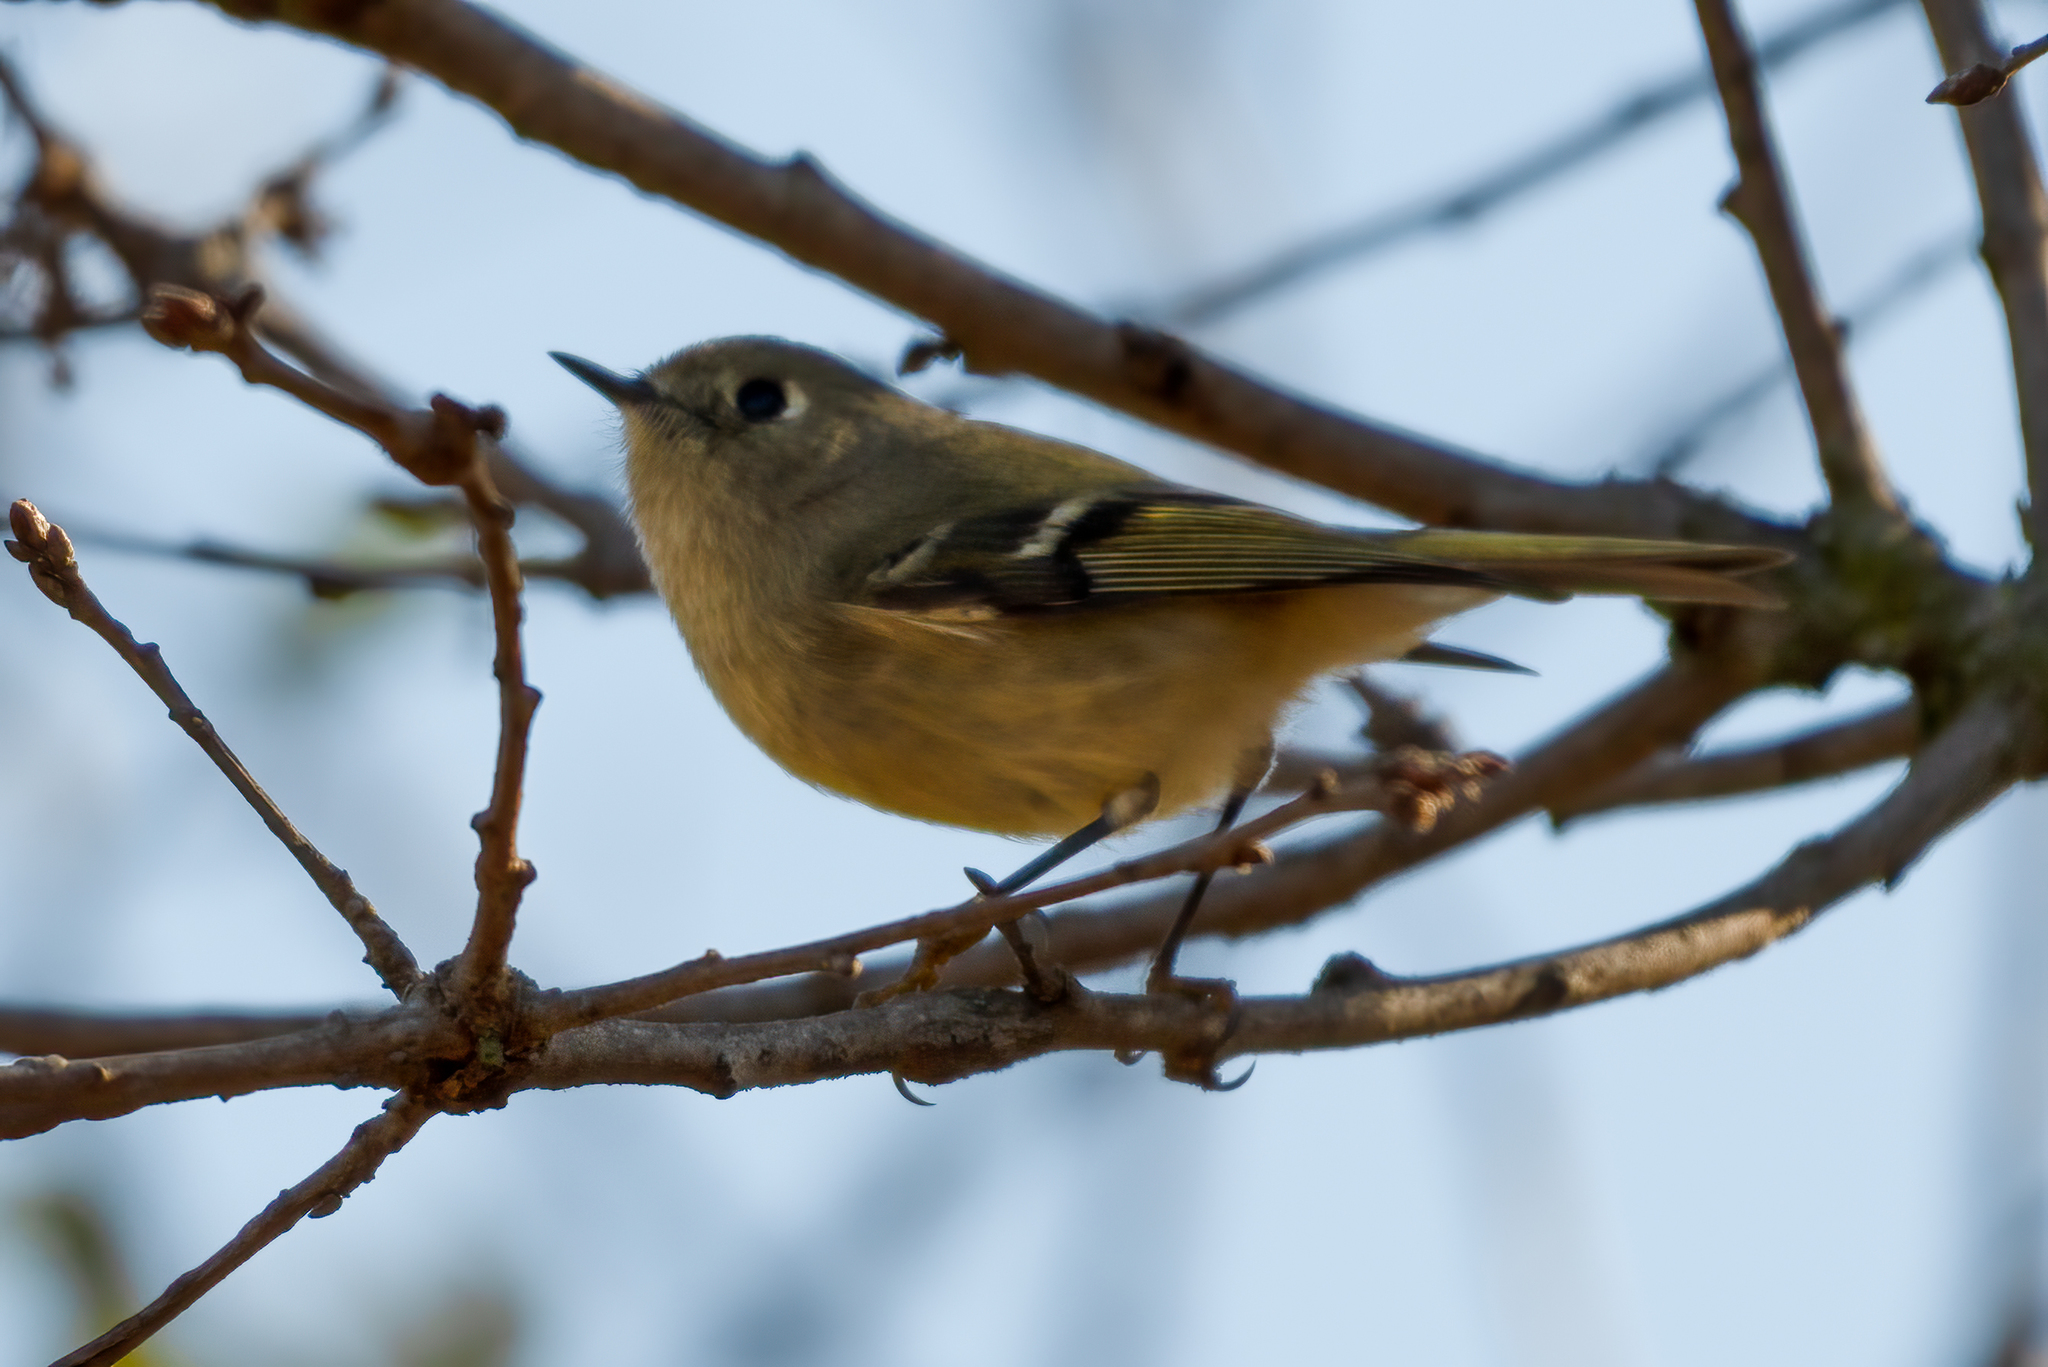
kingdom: Animalia
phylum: Chordata
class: Aves
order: Passeriformes
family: Regulidae
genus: Regulus
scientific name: Regulus calendula
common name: Ruby-crowned kinglet
